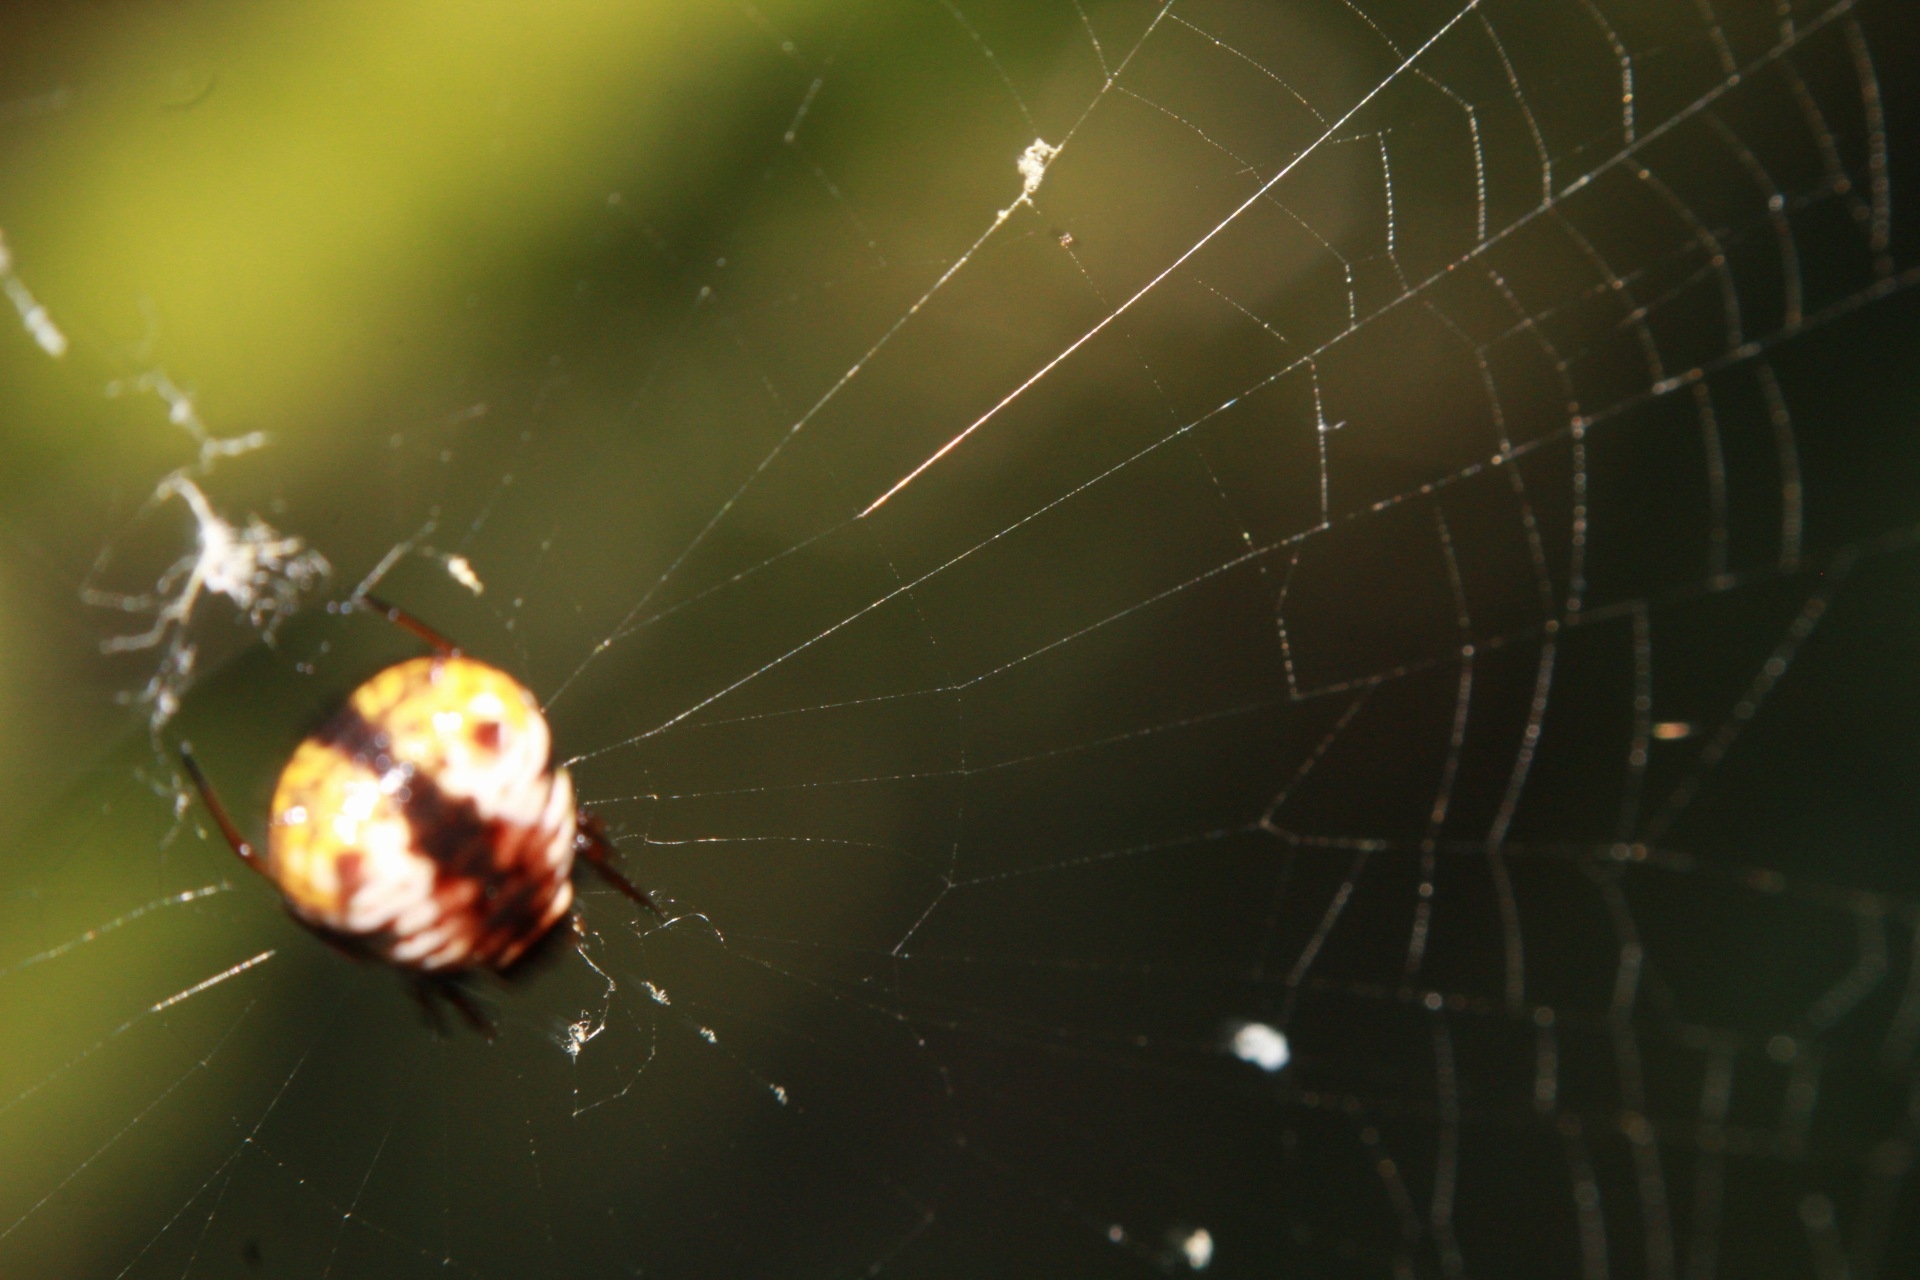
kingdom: Animalia
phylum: Arthropoda
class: Arachnida
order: Araneae
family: Araneidae
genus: Micrathena
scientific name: Micrathena saccata
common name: Orb weavers
